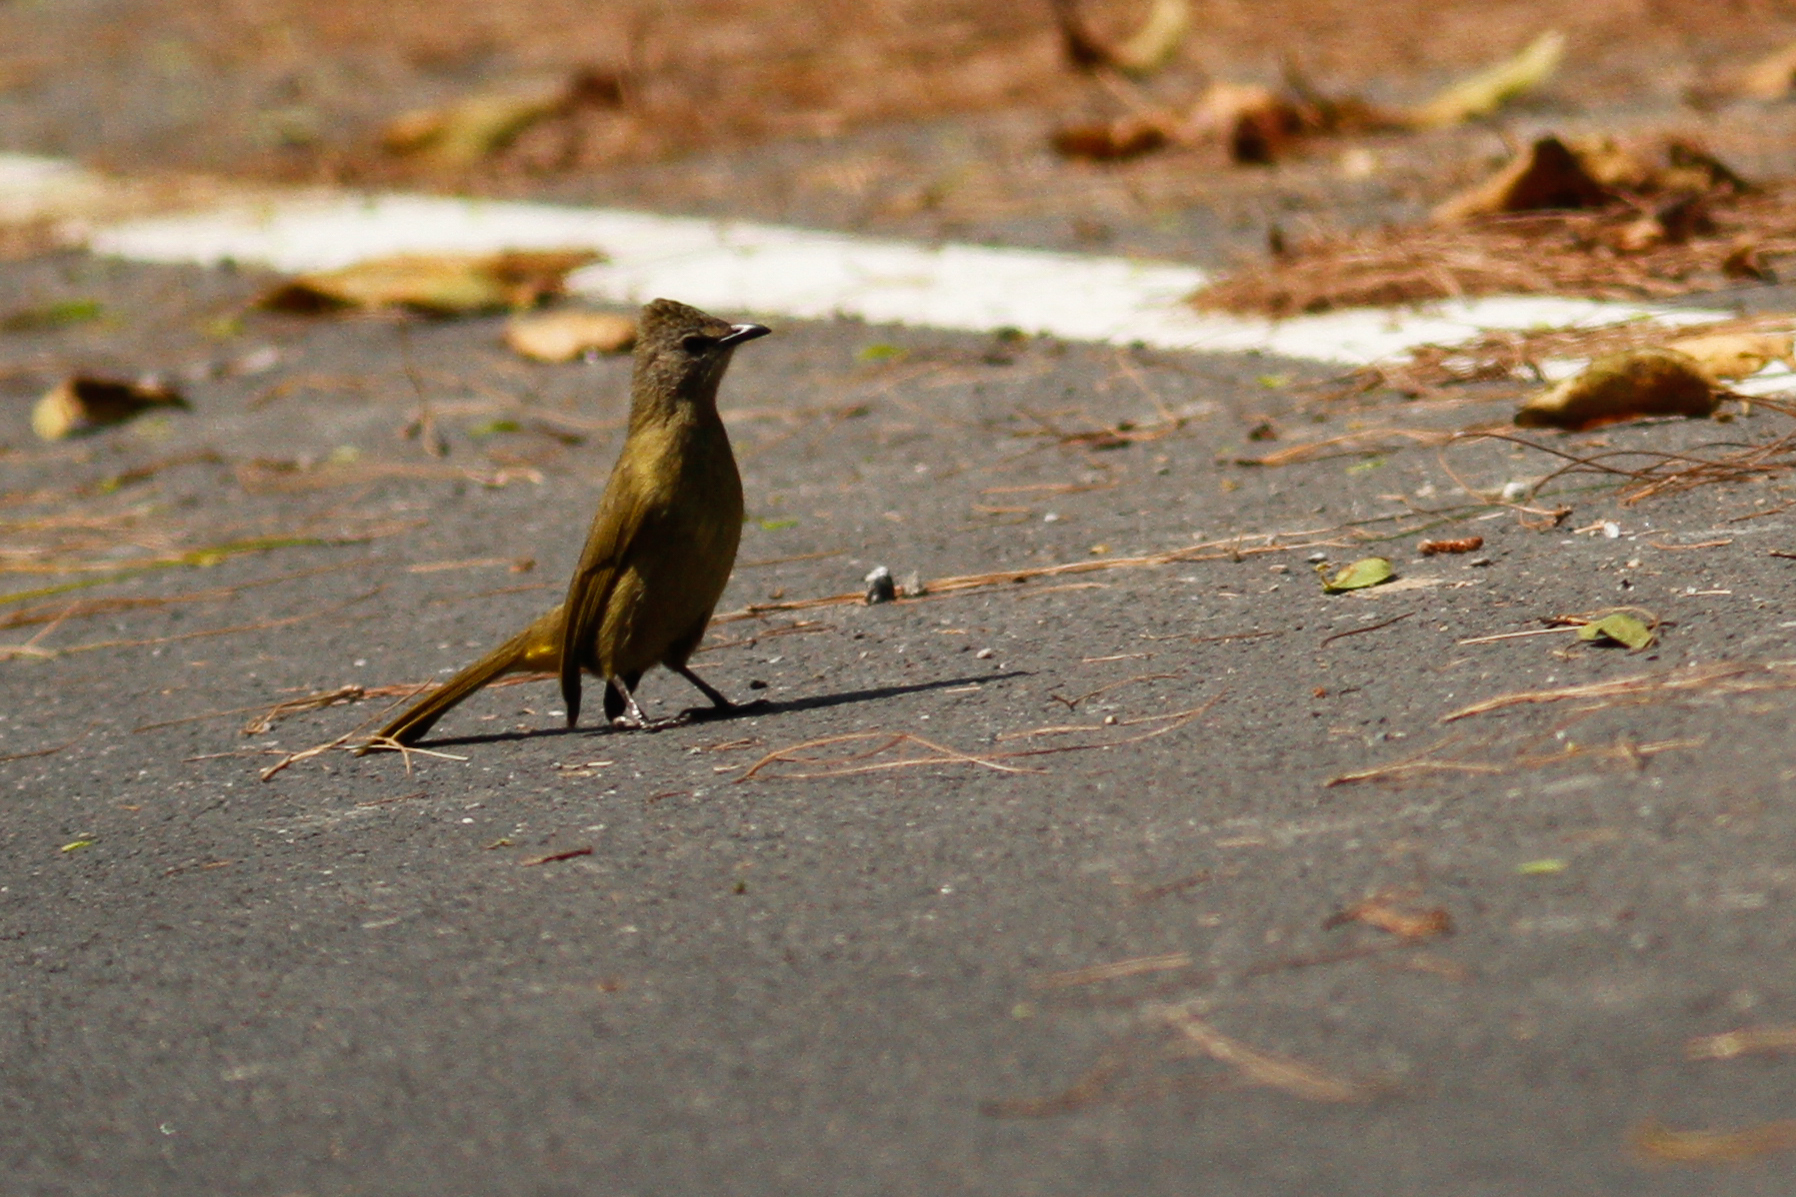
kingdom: Animalia
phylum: Chordata
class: Aves
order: Passeriformes
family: Pycnonotidae
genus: Pycnonotus
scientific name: Pycnonotus flavescens
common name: Flavescent bulbul
